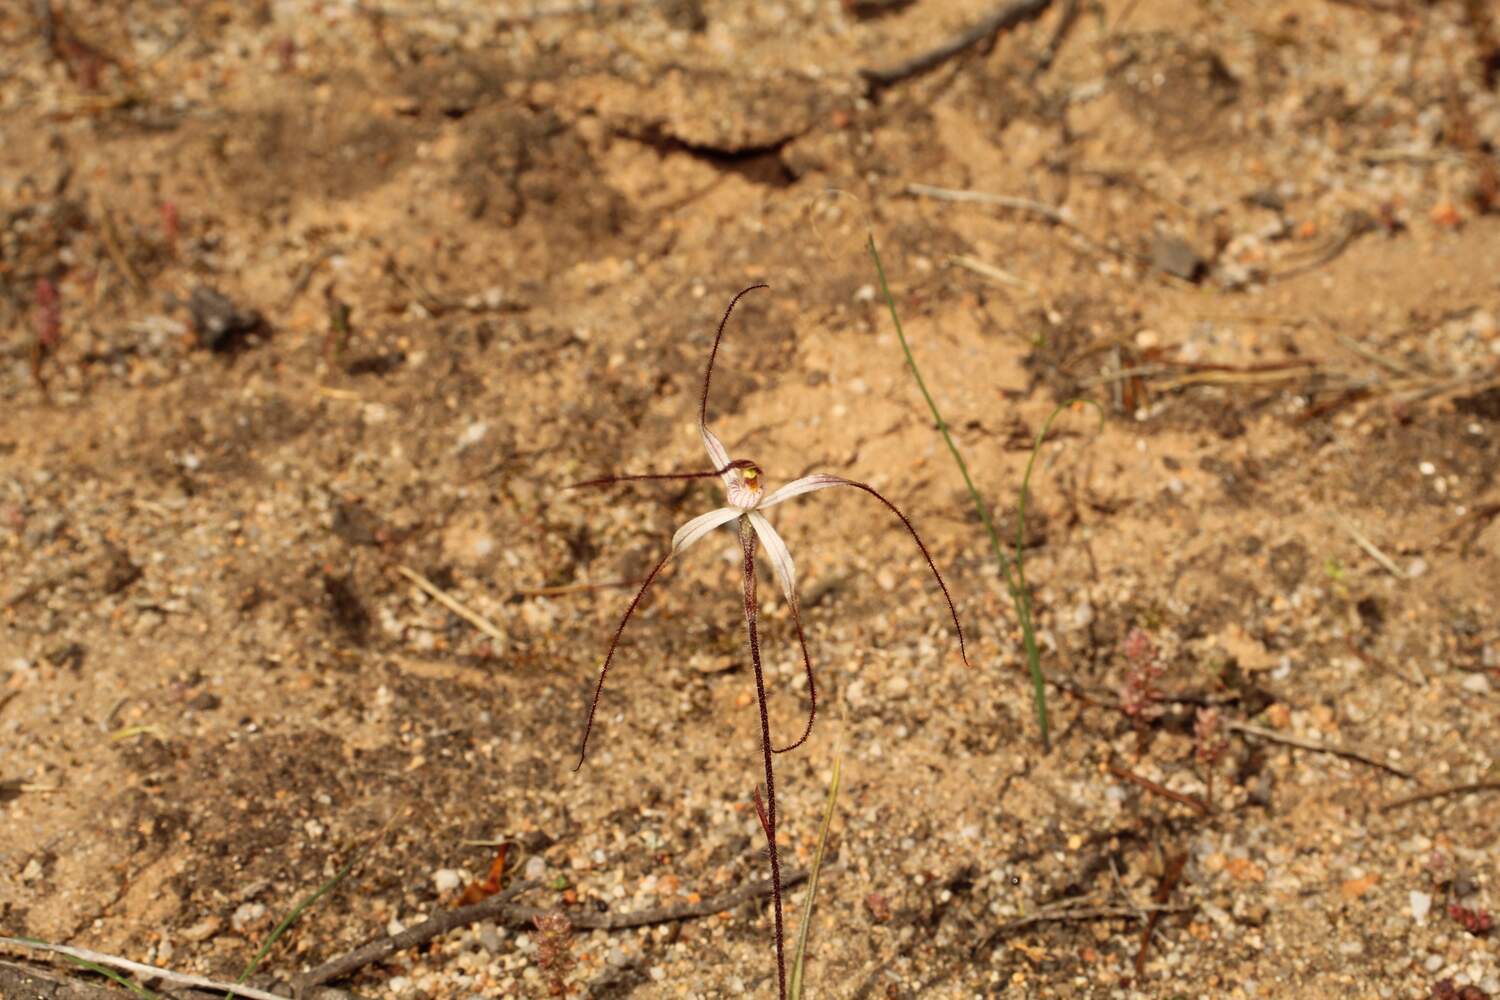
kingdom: Plantae
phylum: Tracheophyta
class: Liliopsida
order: Asparagales
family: Orchidaceae
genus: Caladenia
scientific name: Caladenia microchila
